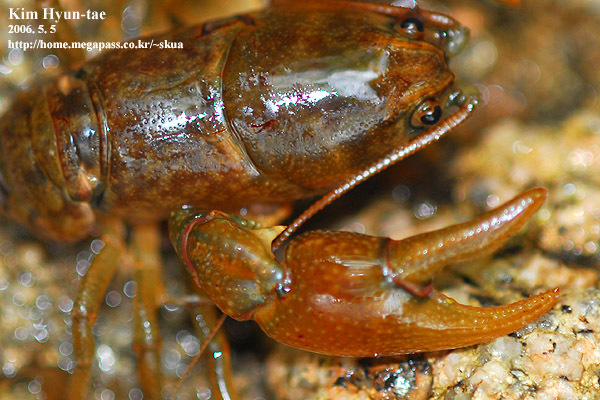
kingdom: Animalia
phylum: Arthropoda
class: Malacostraca
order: Decapoda
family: Cambaroididae
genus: Cambaroides
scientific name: Cambaroides similis
